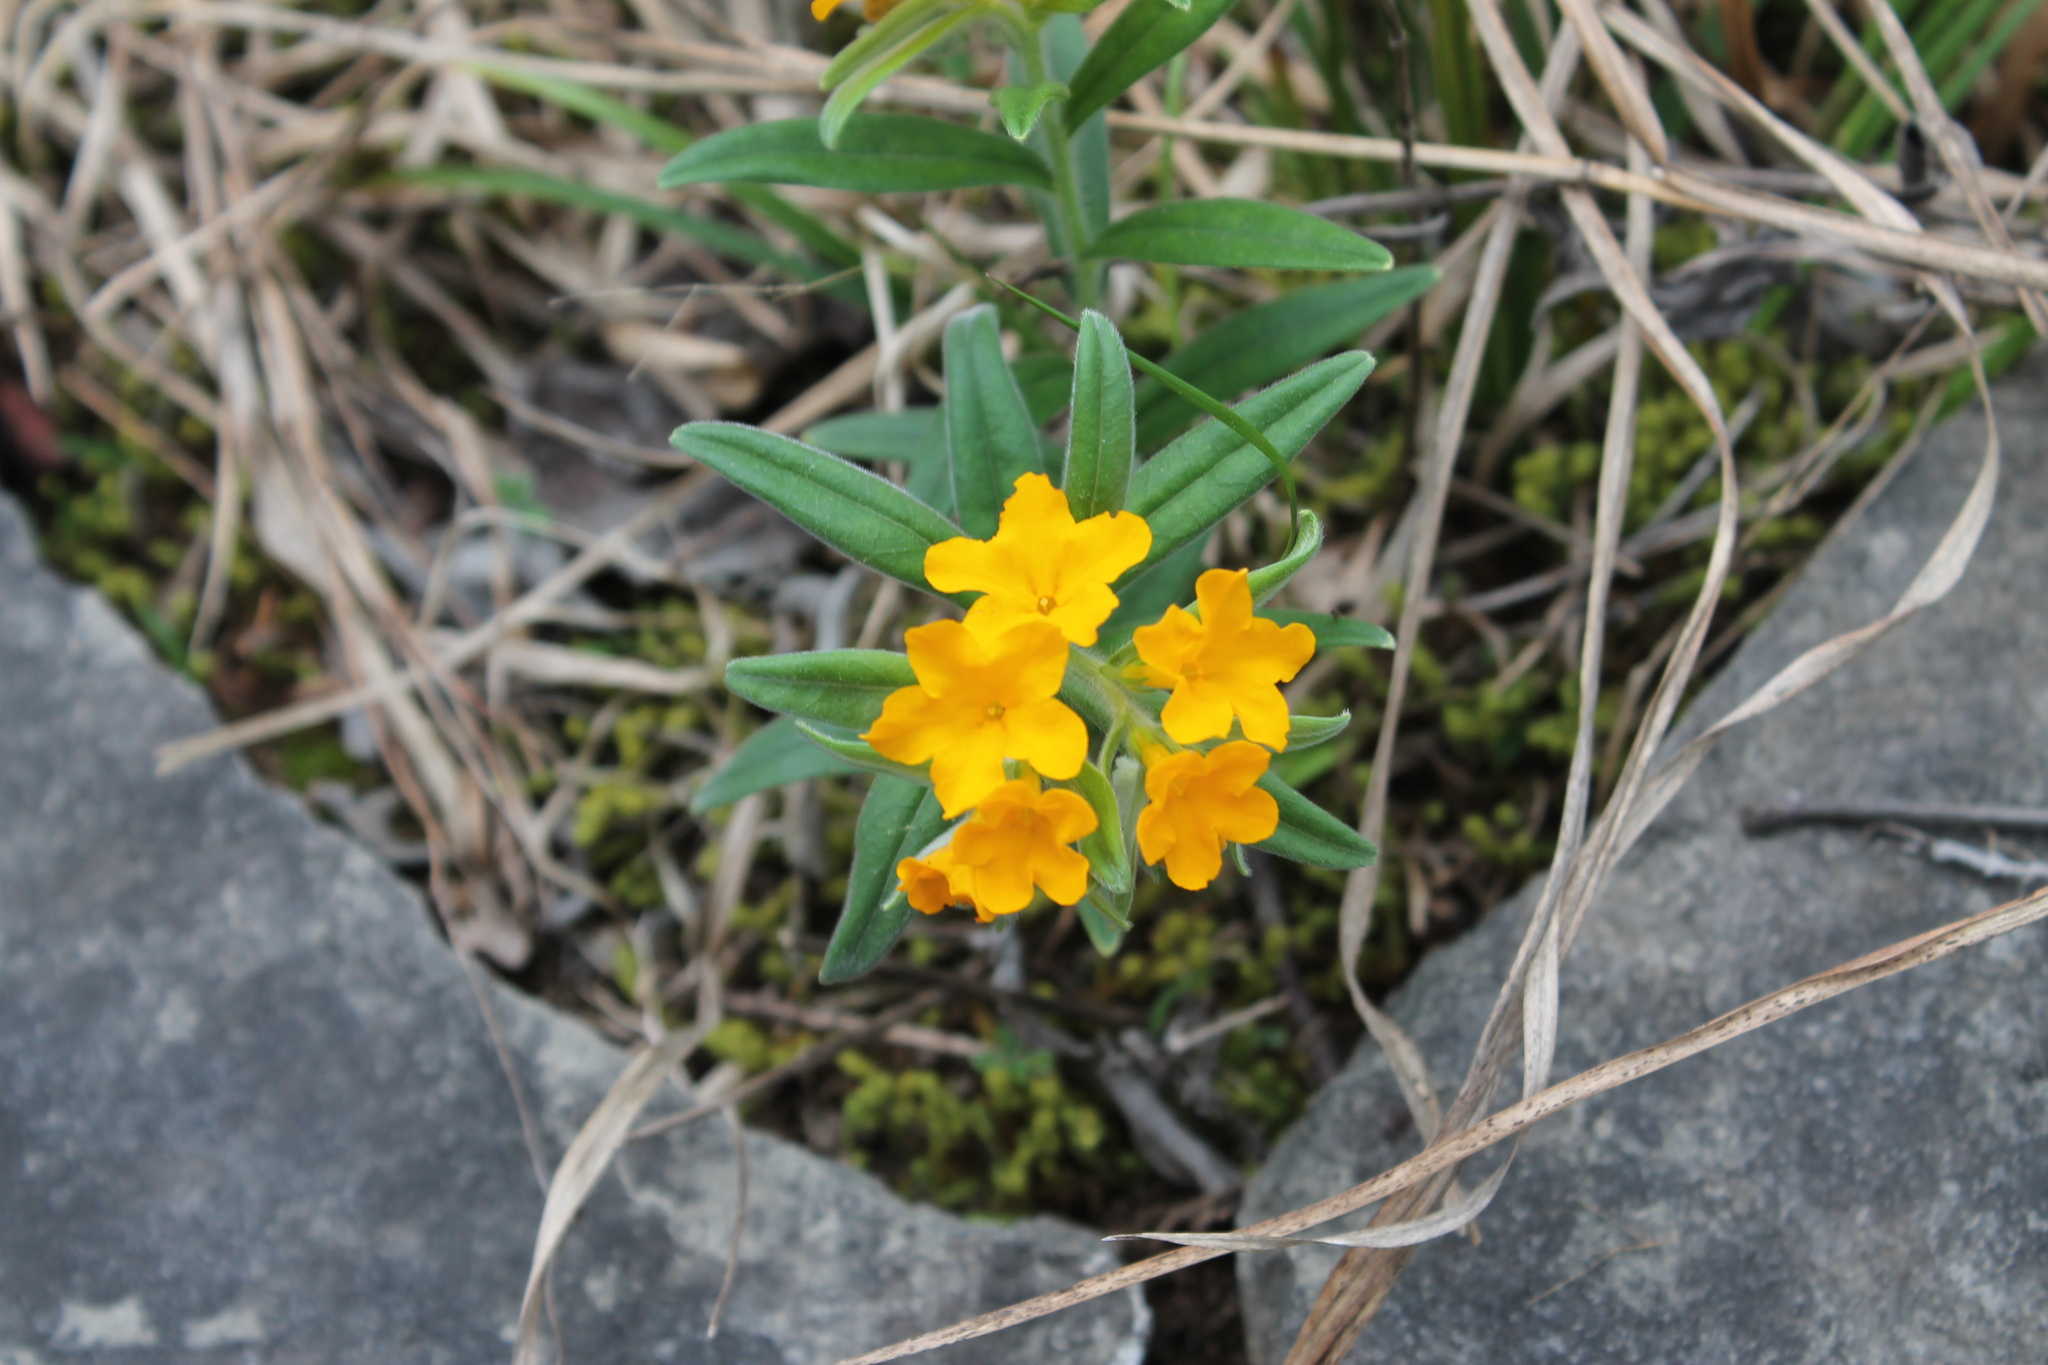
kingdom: Plantae
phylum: Tracheophyta
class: Magnoliopsida
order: Boraginales
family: Boraginaceae
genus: Lithospermum
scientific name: Lithospermum canescens
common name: Hoary puccoon
